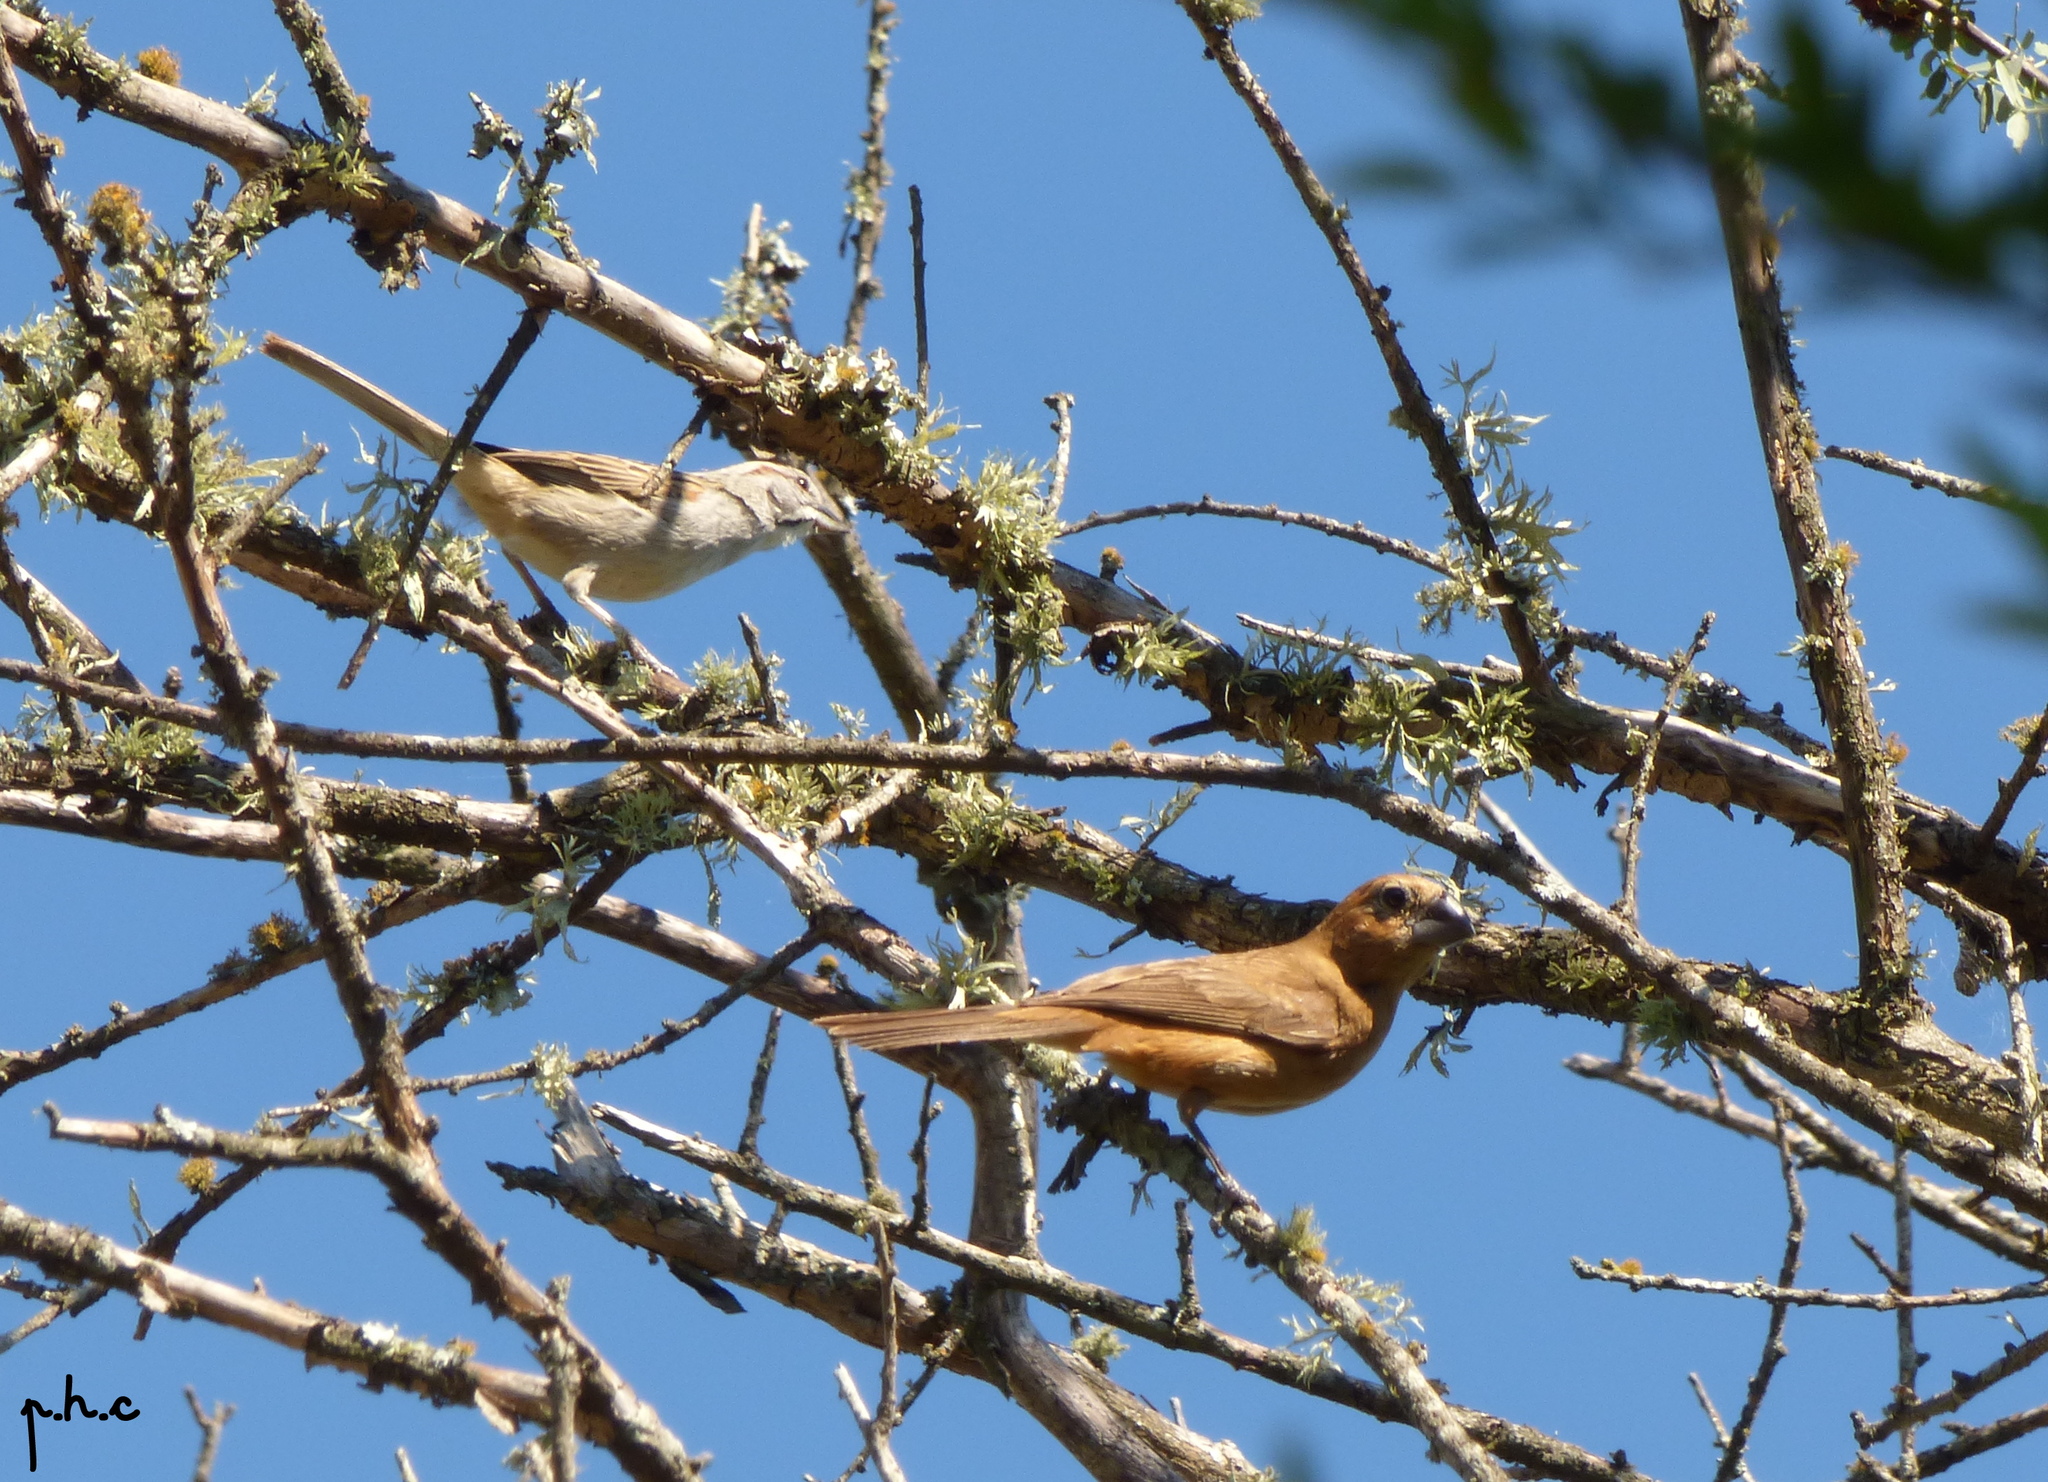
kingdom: Animalia
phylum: Chordata
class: Aves
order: Passeriformes
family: Cardinalidae
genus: Cyanoloxia
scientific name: Cyanoloxia brissonii
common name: Ultramarine grosbeak
